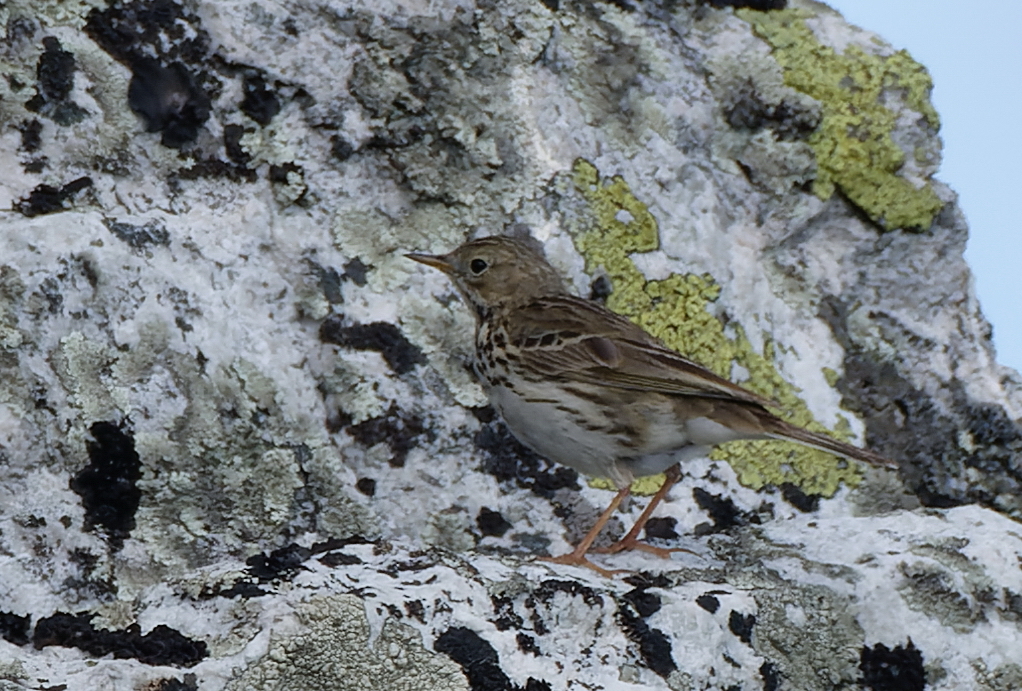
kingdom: Animalia
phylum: Chordata
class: Aves
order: Passeriformes
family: Motacillidae
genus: Anthus
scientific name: Anthus pratensis
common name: Meadow pipit
